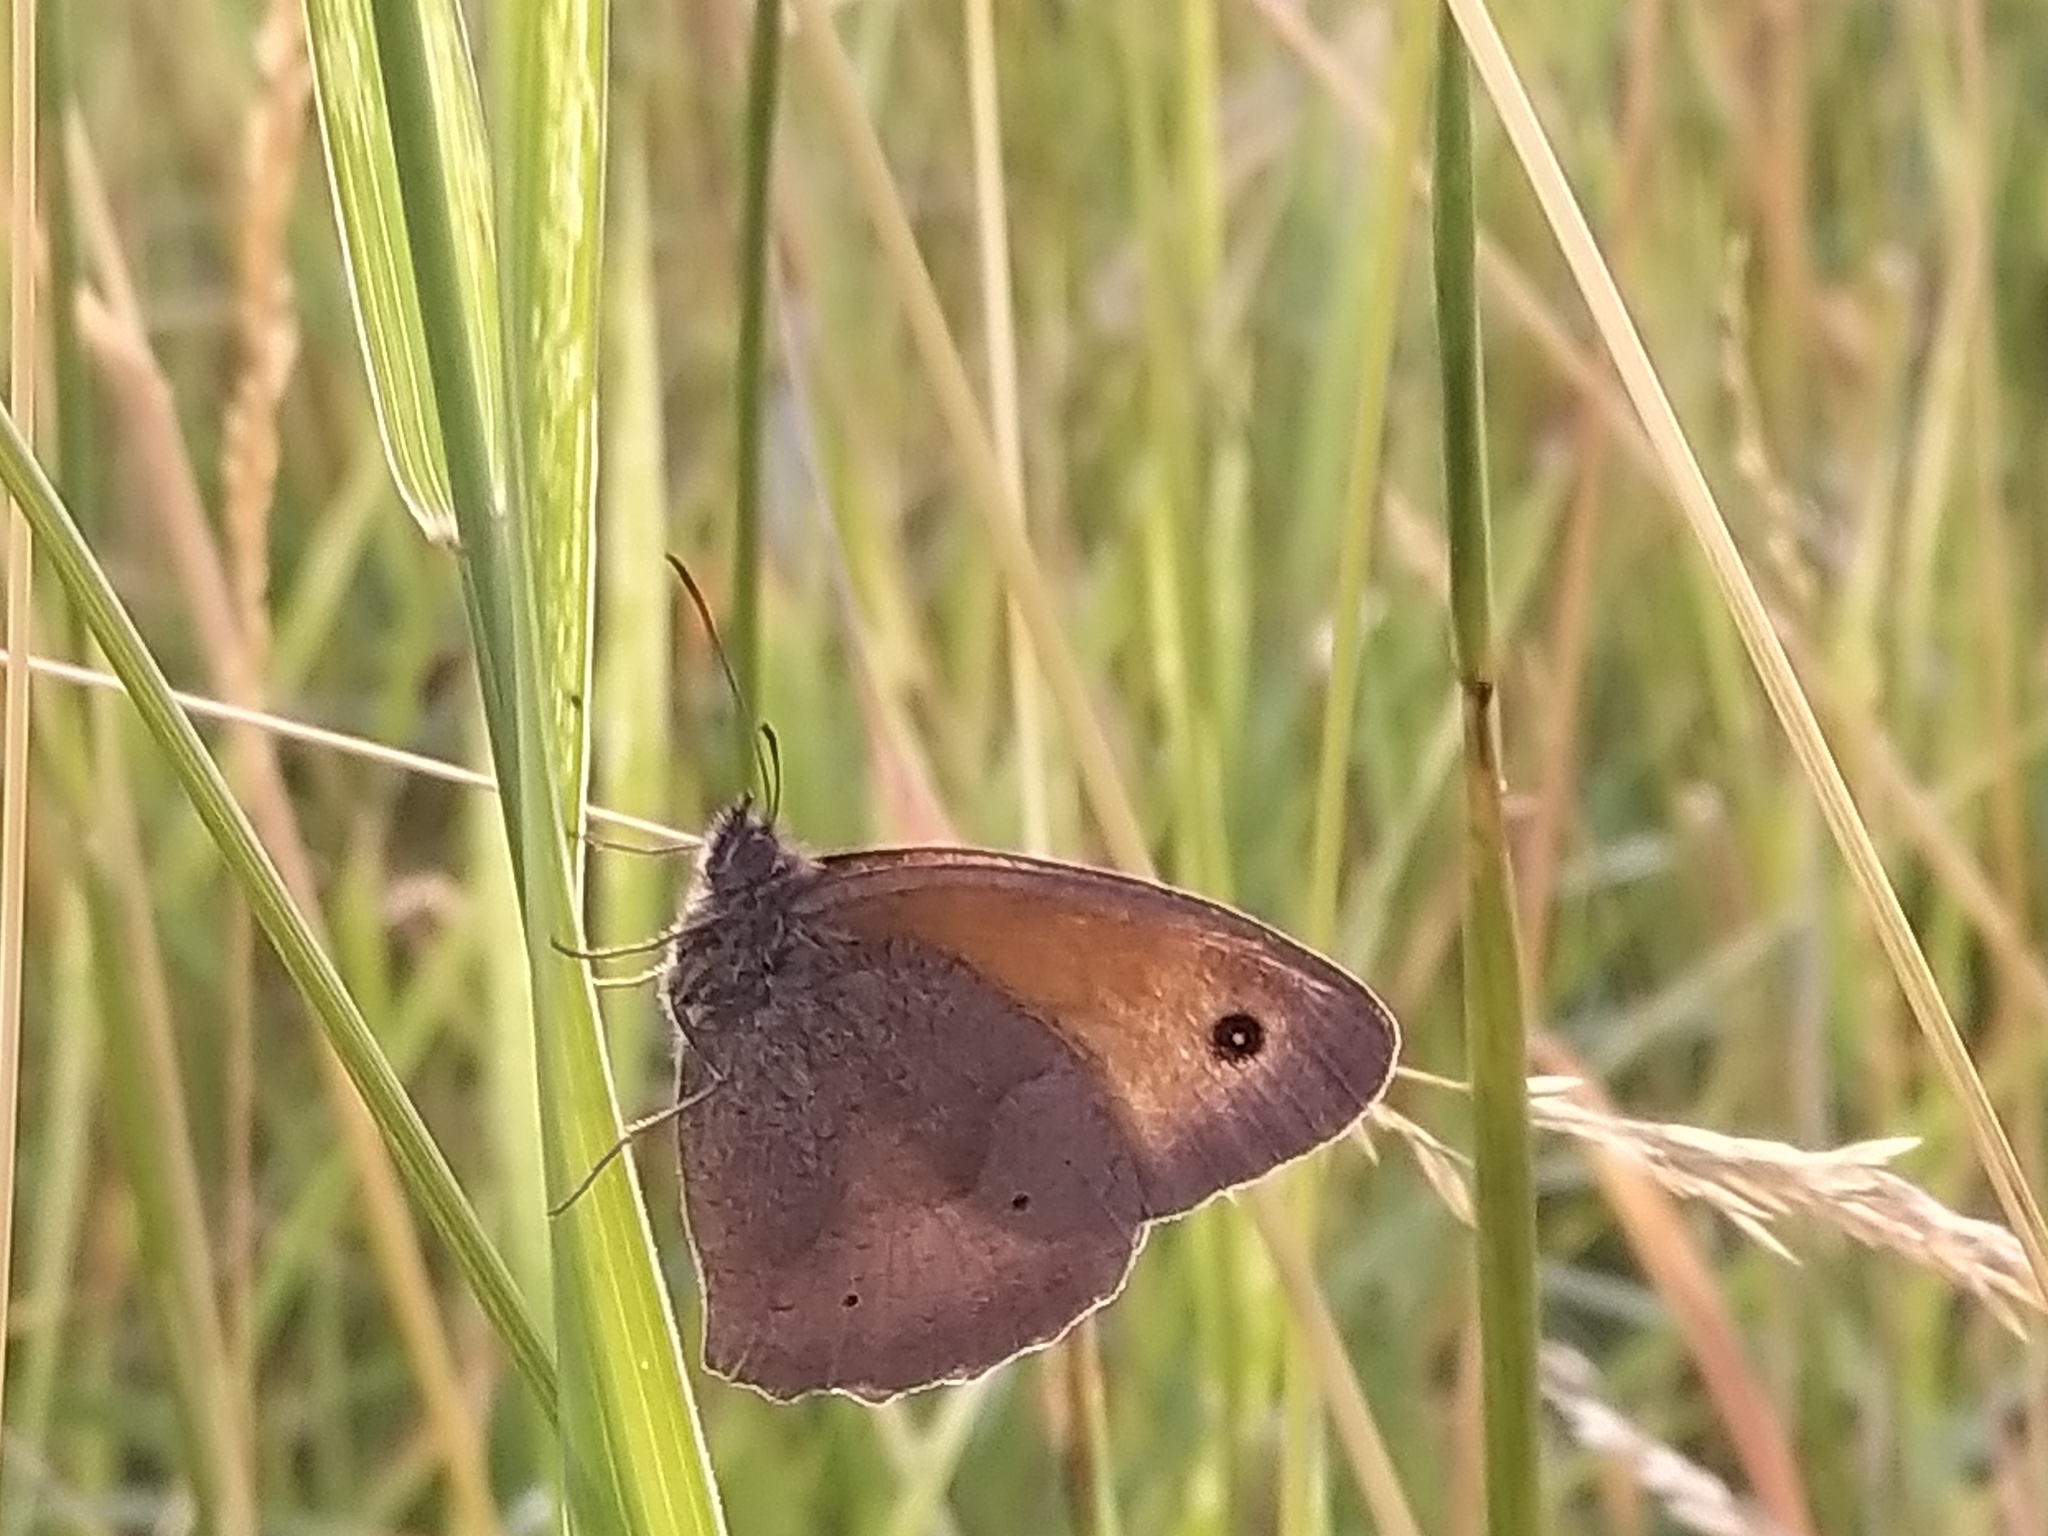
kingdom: Animalia
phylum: Arthropoda
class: Insecta
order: Lepidoptera
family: Nymphalidae
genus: Maniola
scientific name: Maniola jurtina
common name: Meadow brown
